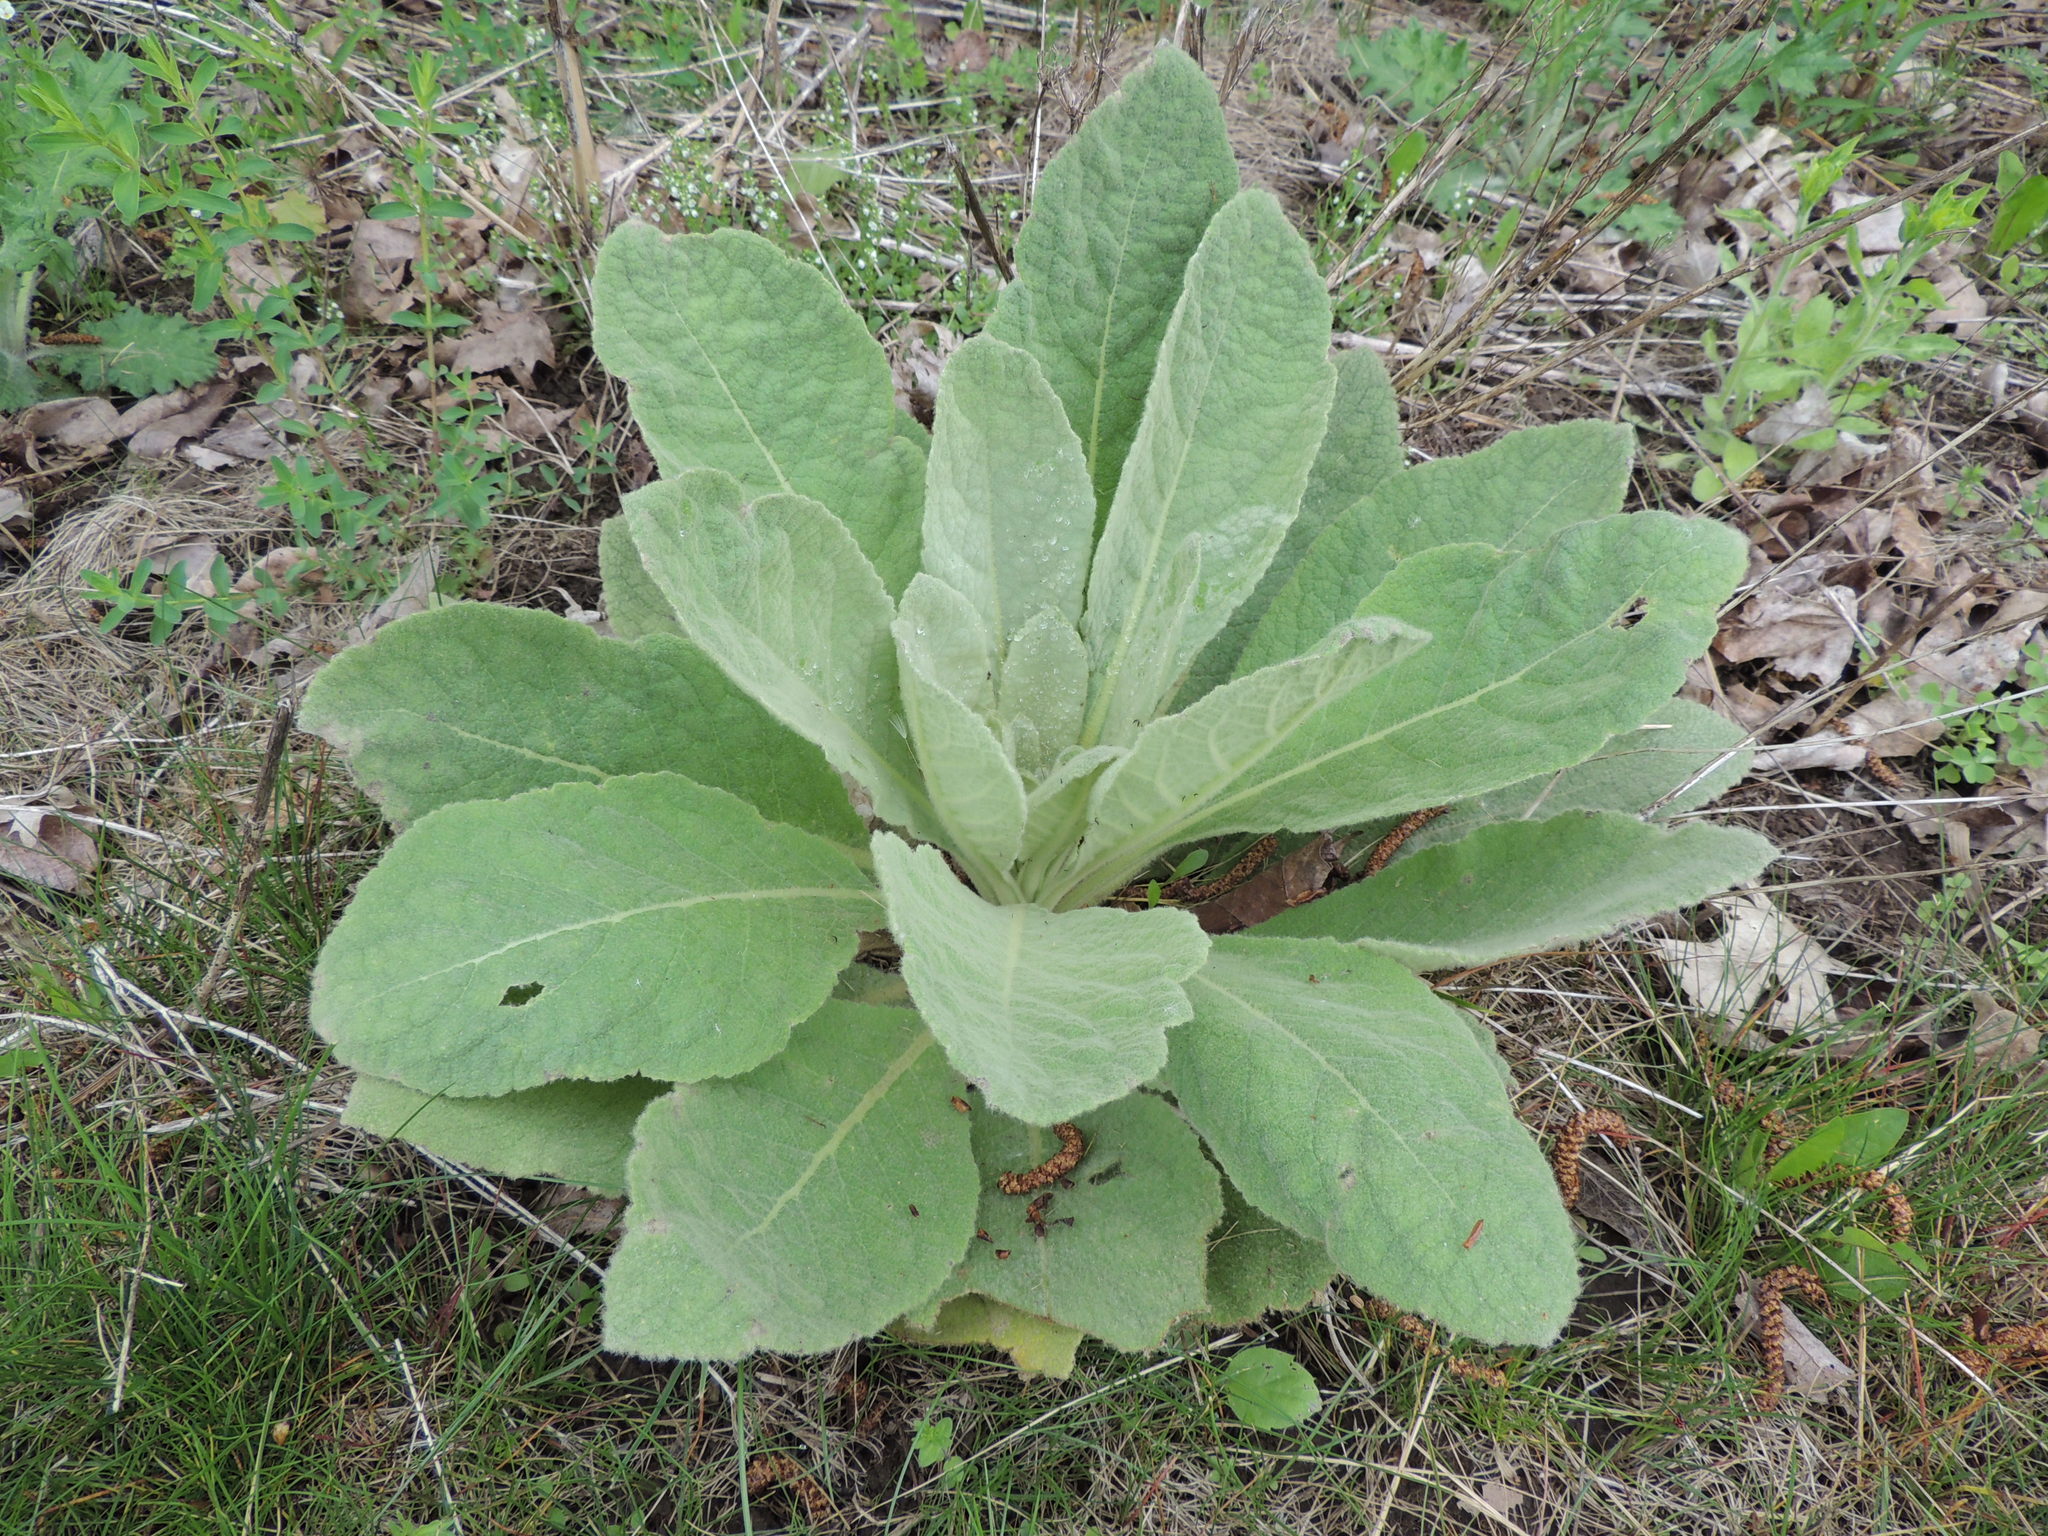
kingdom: Plantae
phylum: Tracheophyta
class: Magnoliopsida
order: Lamiales
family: Scrophulariaceae
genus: Verbascum
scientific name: Verbascum thapsus
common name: Common mullein
